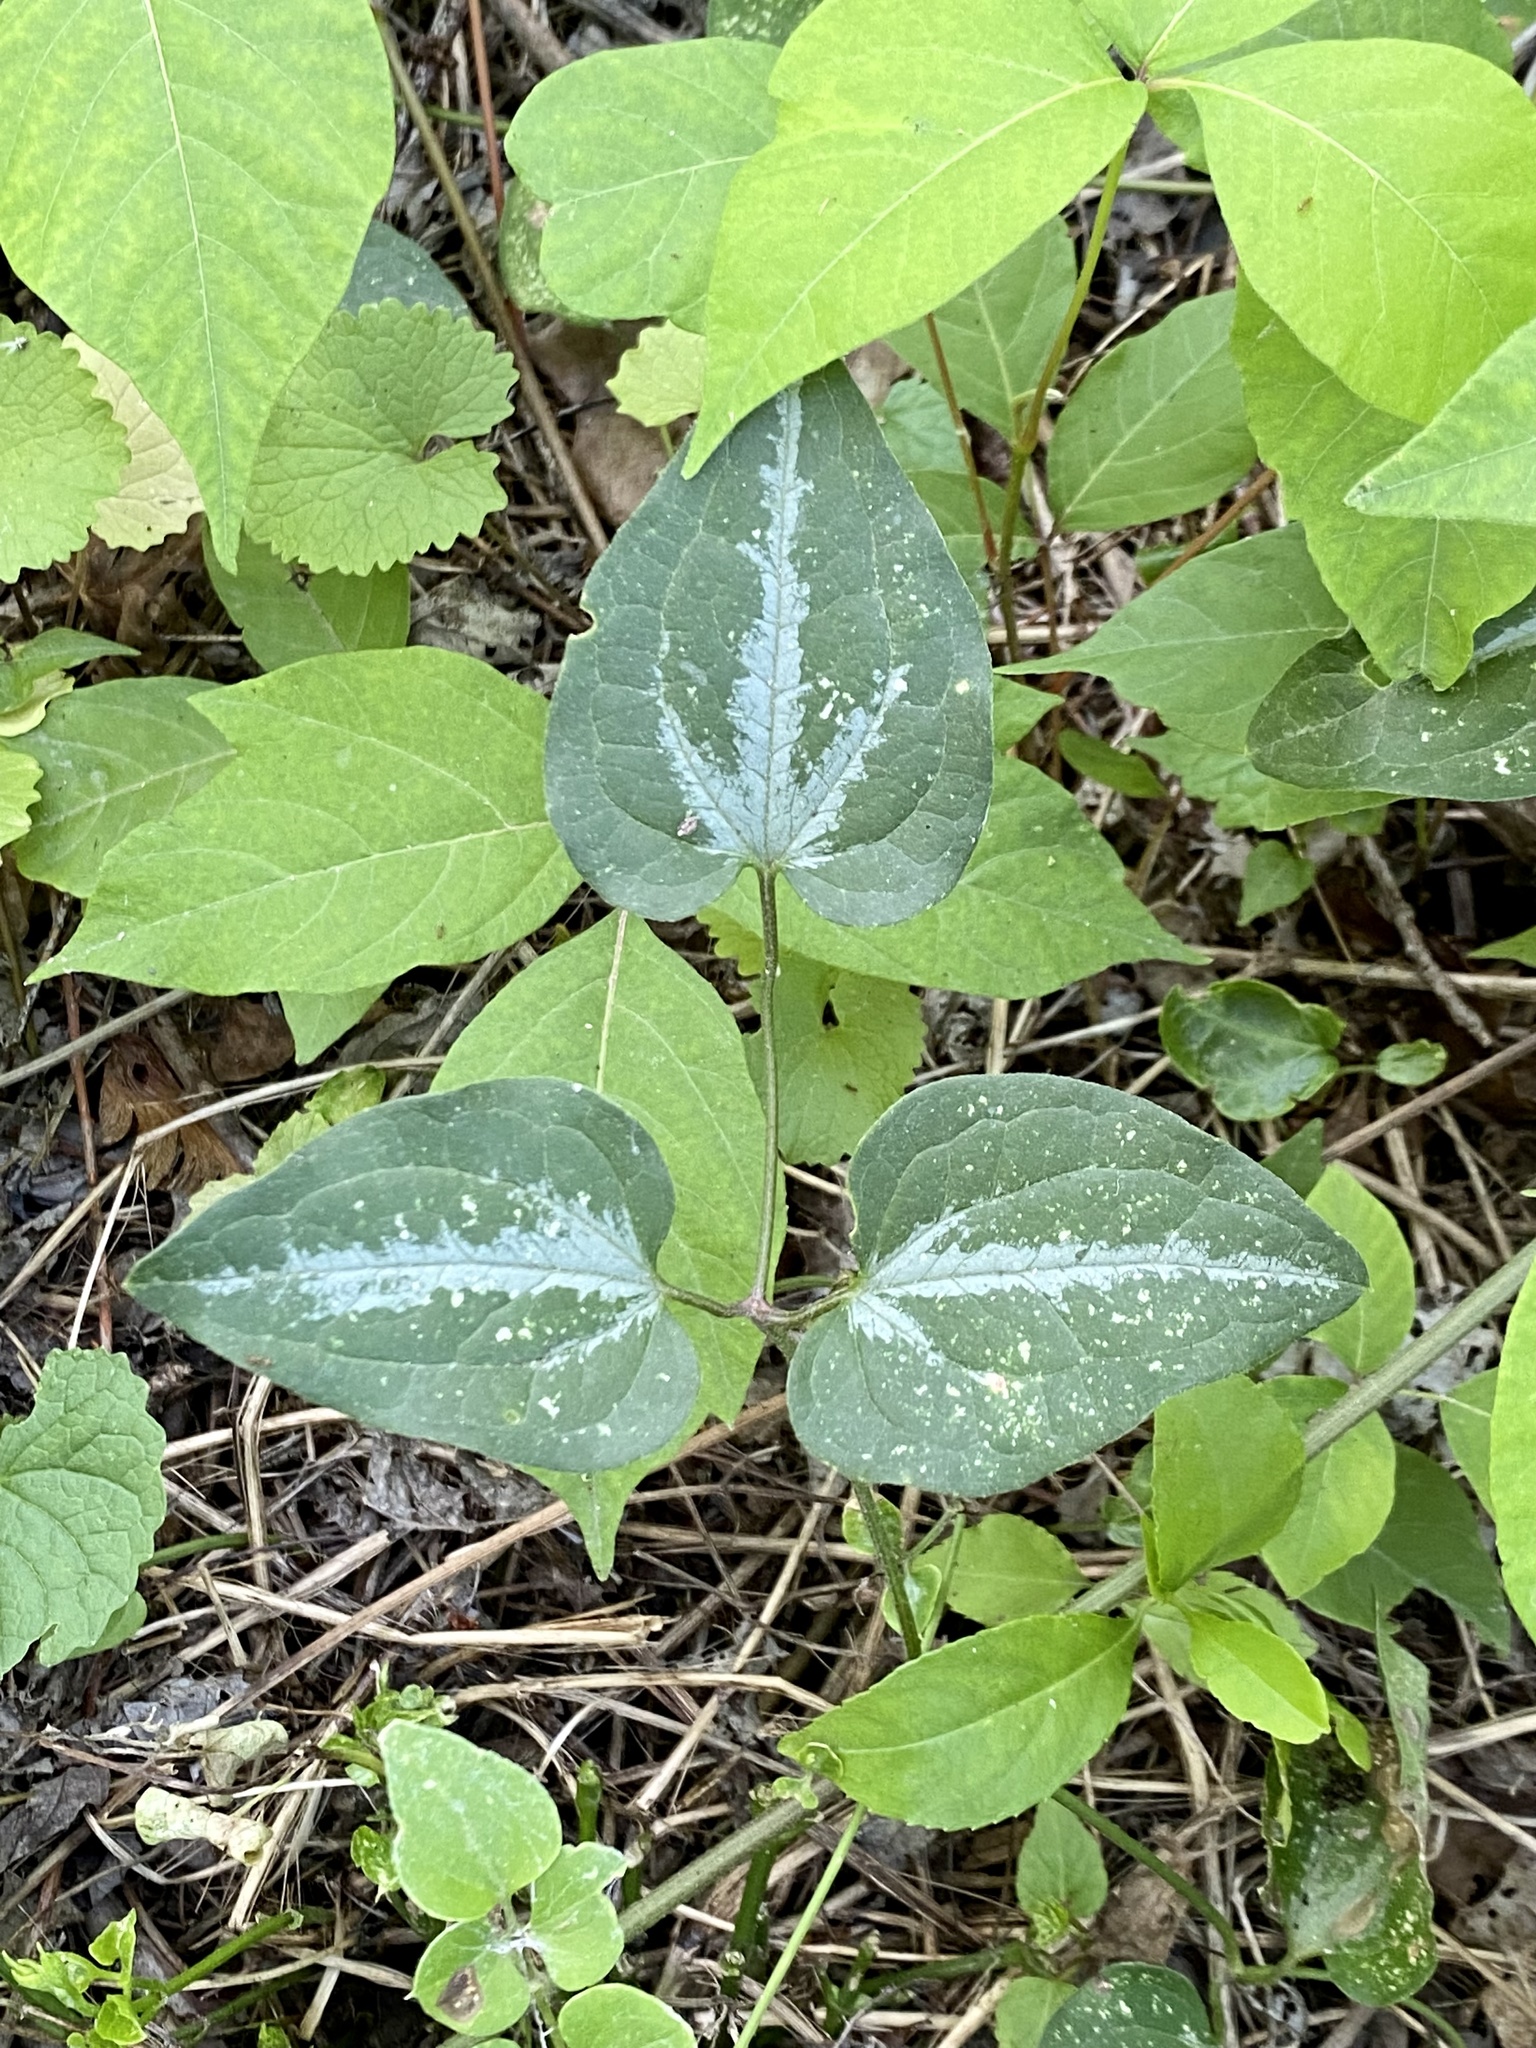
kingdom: Plantae
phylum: Tracheophyta
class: Magnoliopsida
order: Ranunculales
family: Ranunculaceae
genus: Clematis
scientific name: Clematis terniflora
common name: Sweet autumn clematis
